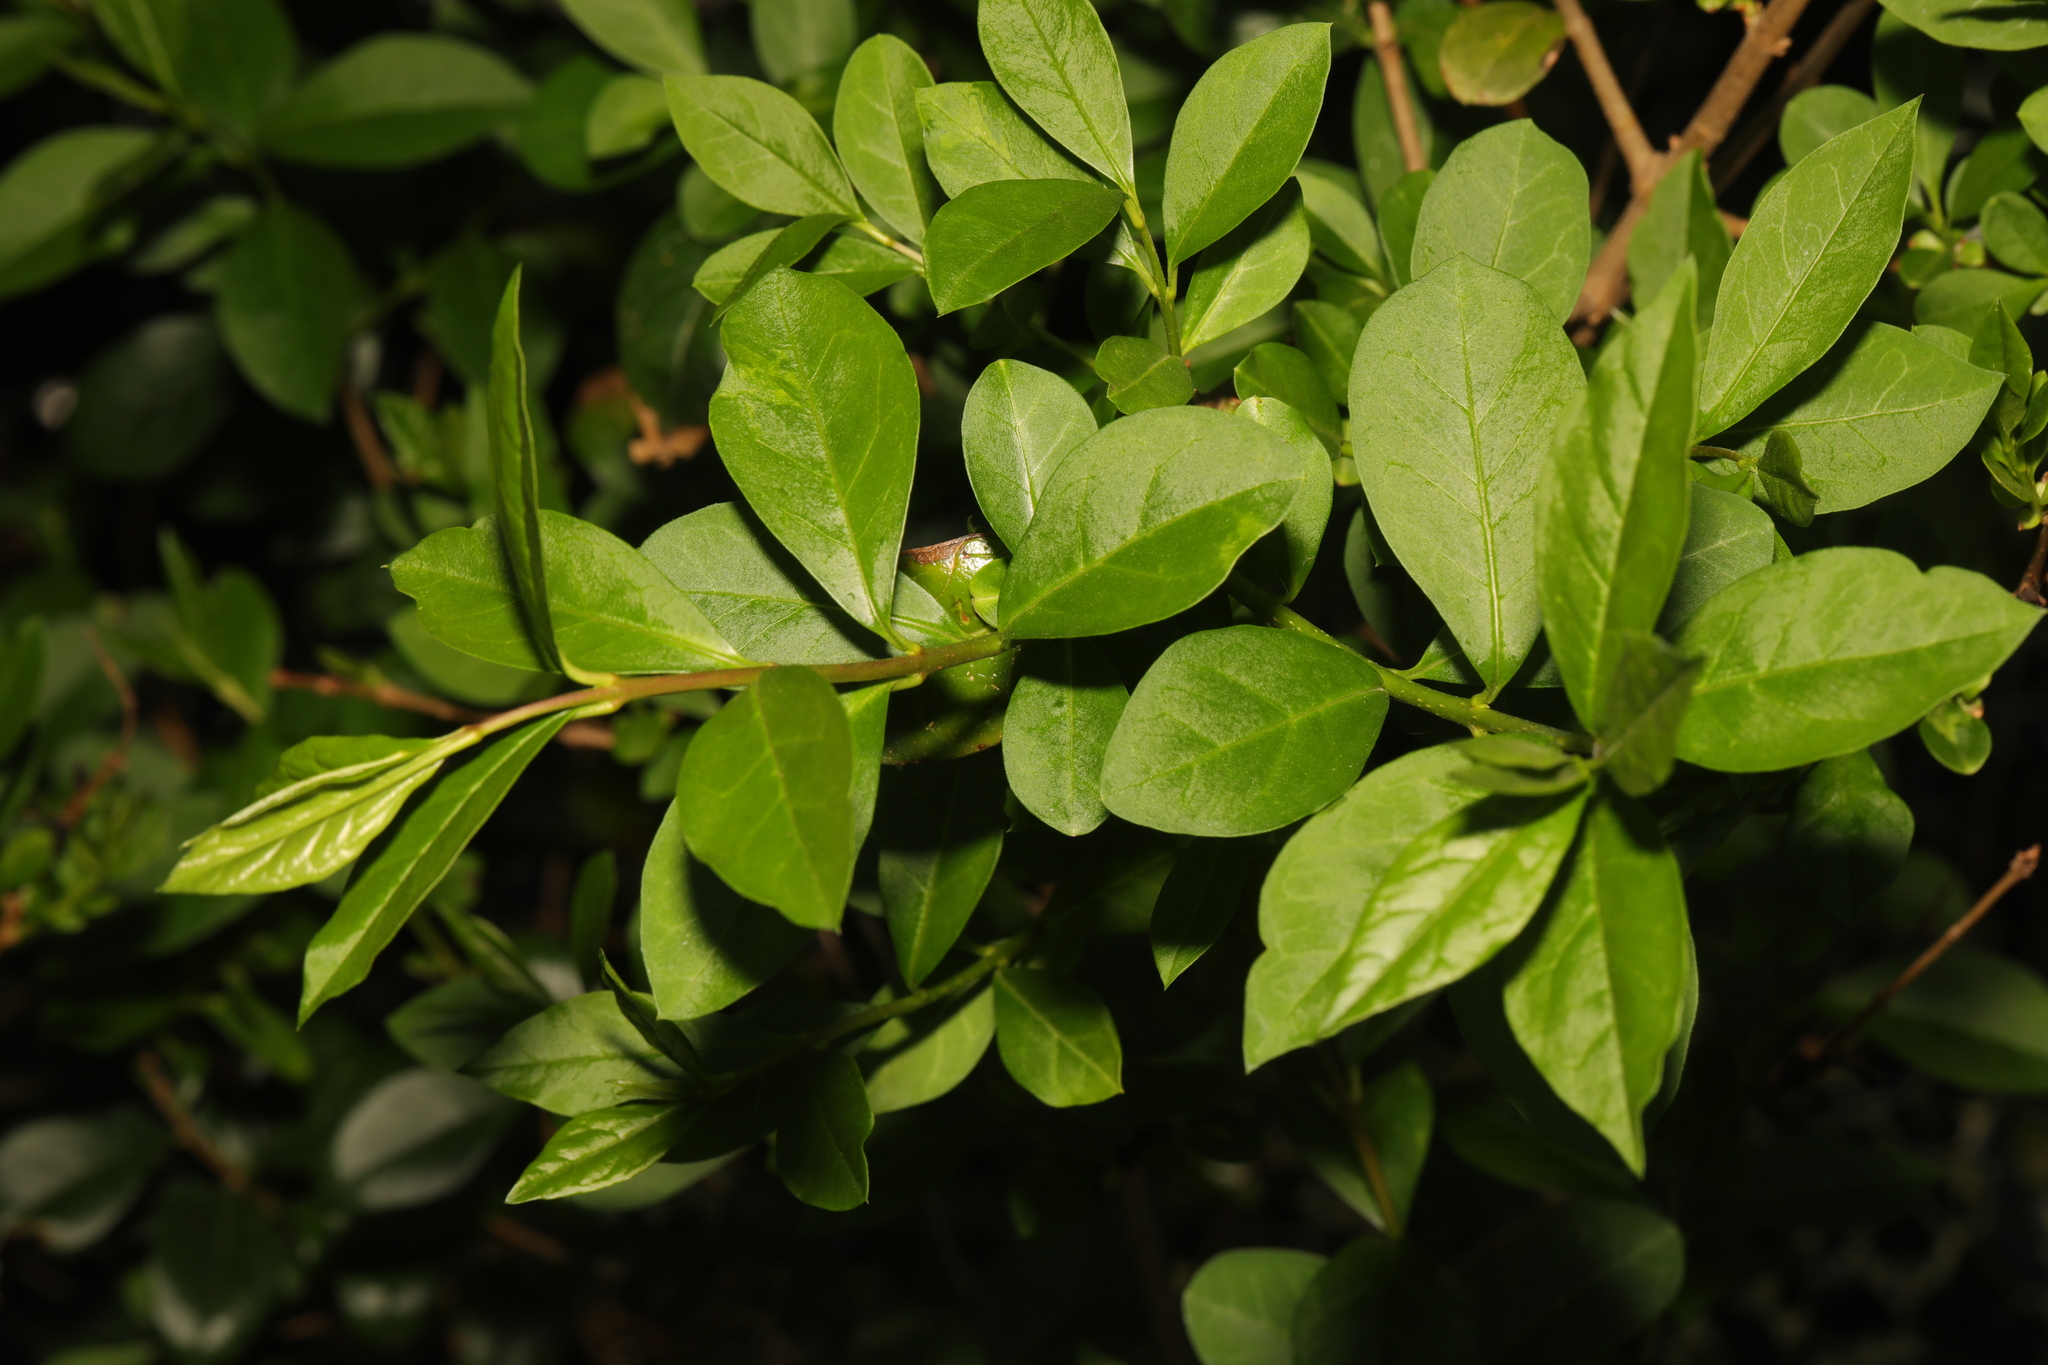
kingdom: Plantae
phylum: Tracheophyta
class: Magnoliopsida
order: Lamiales
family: Oleaceae
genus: Ligustrum
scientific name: Ligustrum ovalifolium
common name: California privet
